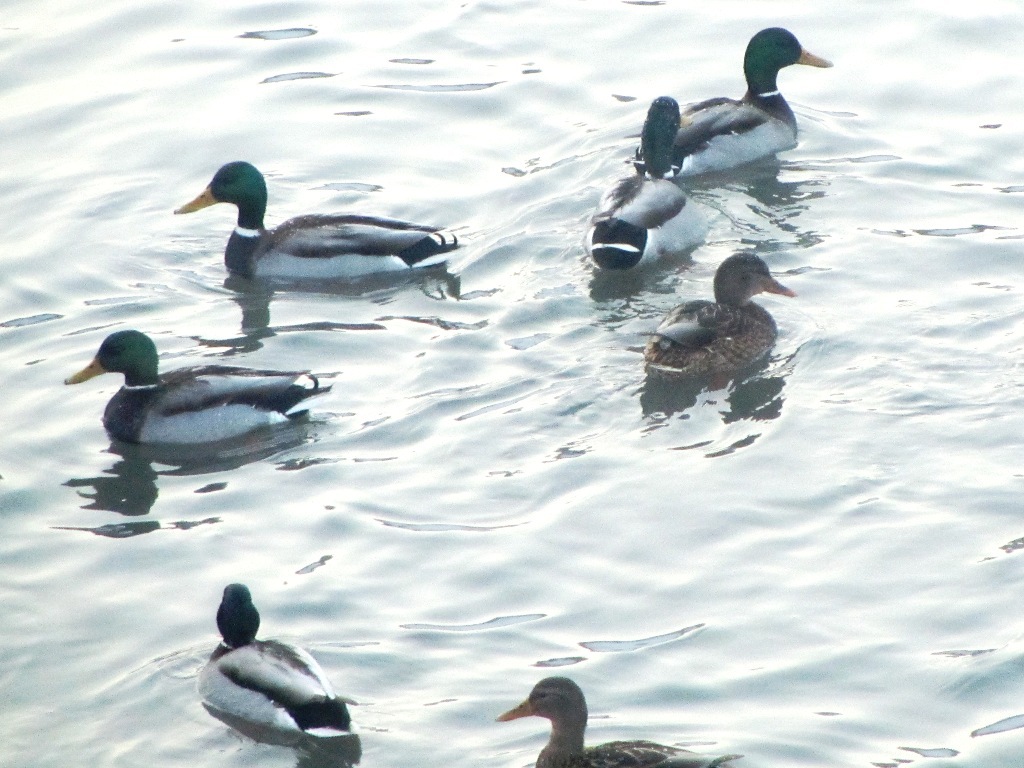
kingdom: Animalia
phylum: Chordata
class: Aves
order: Anseriformes
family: Anatidae
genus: Anas
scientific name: Anas platyrhynchos
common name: Mallard
